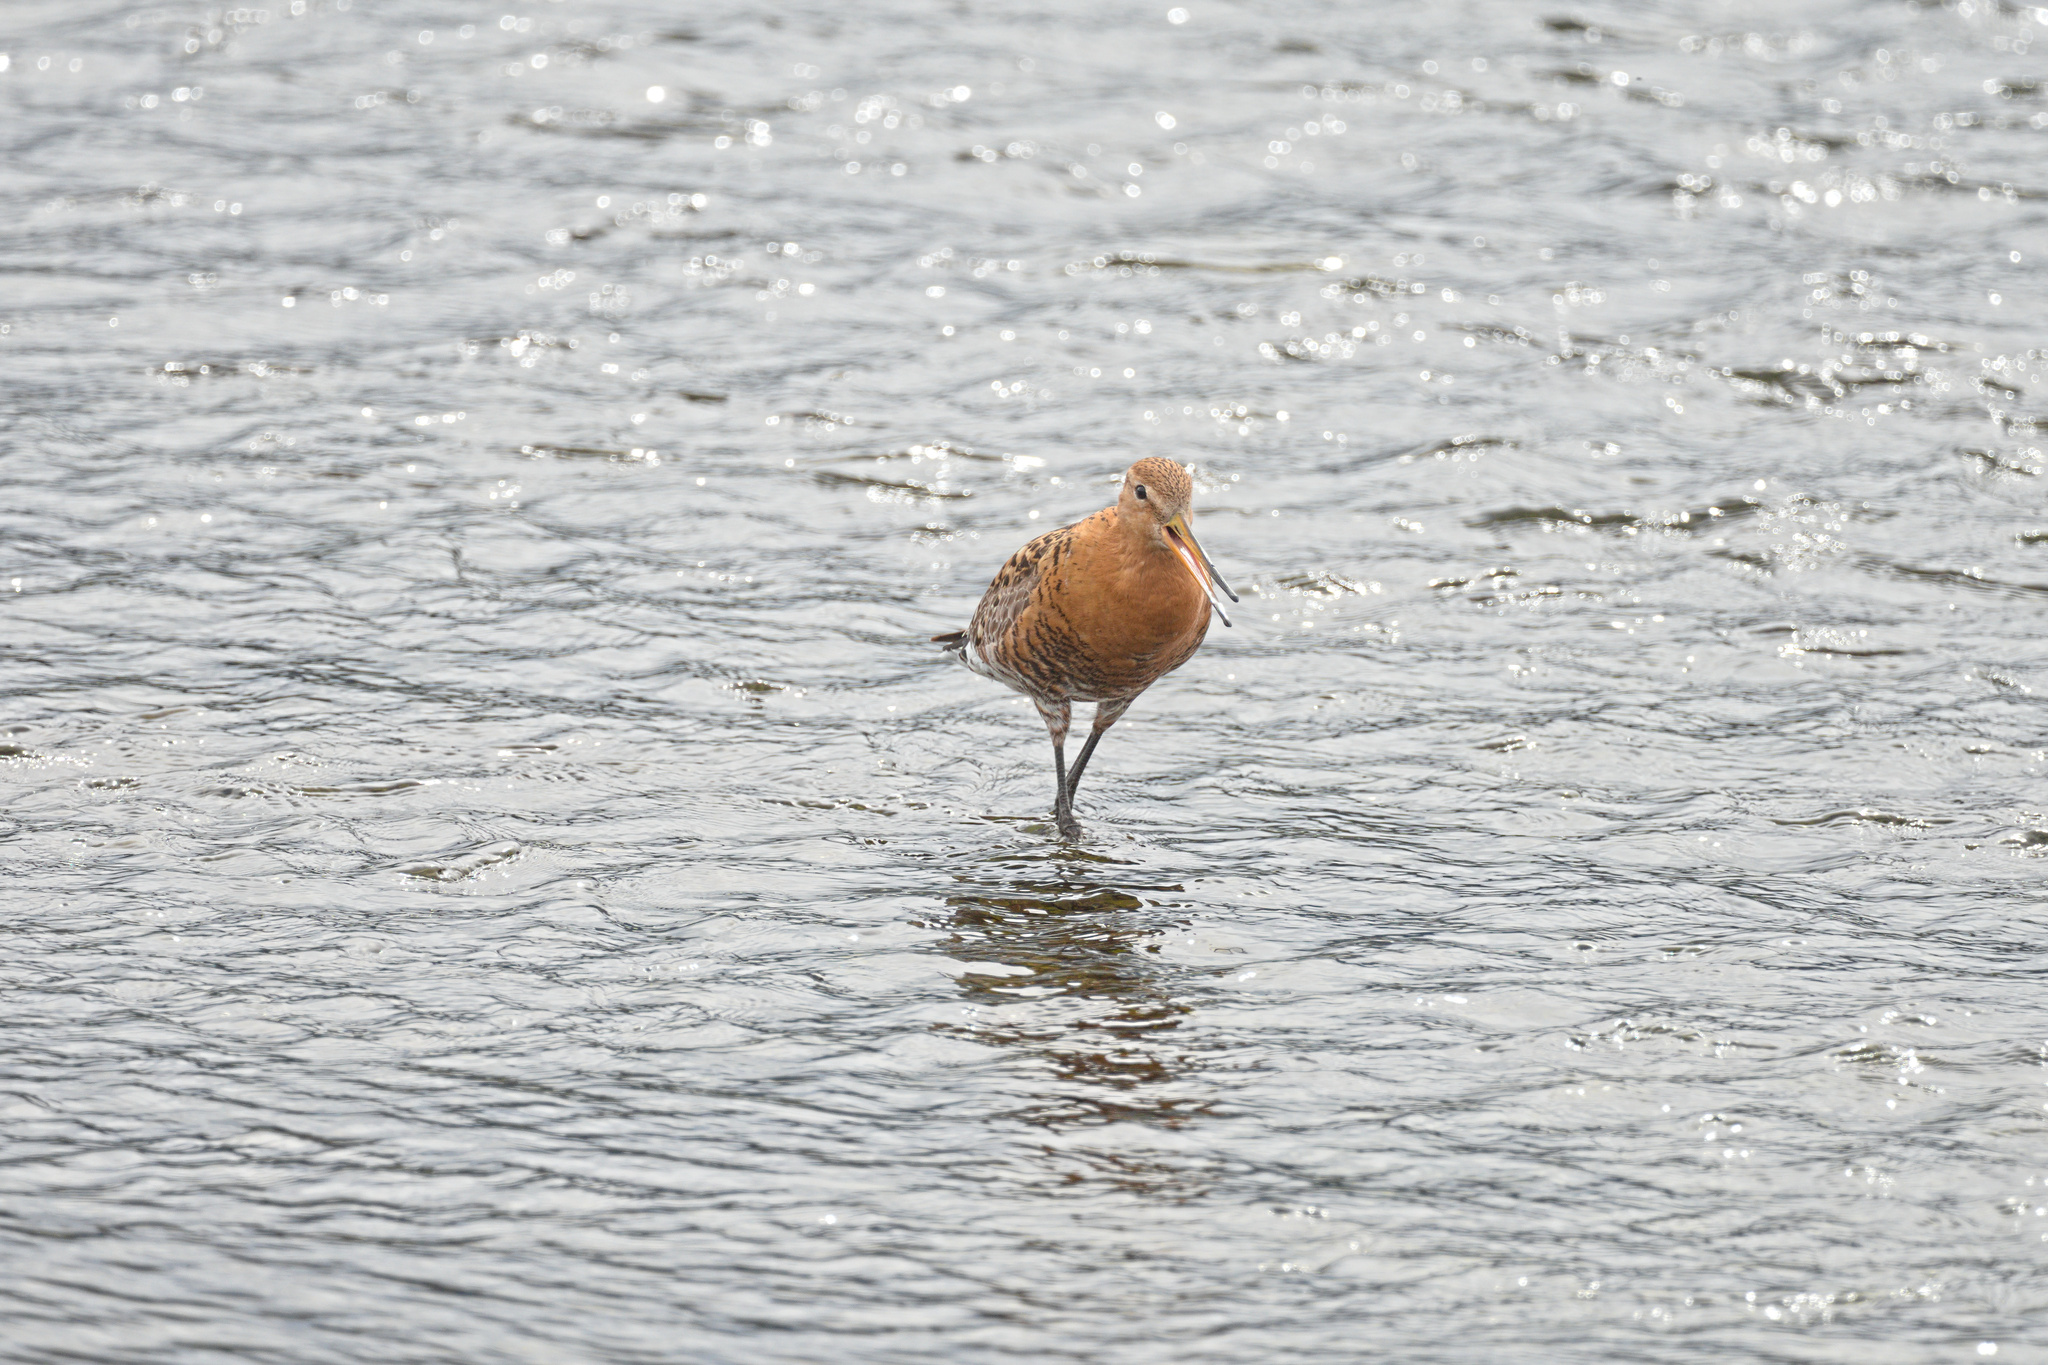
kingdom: Animalia
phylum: Chordata
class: Aves
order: Charadriiformes
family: Scolopacidae
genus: Limosa
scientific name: Limosa limosa
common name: Black-tailed godwit
